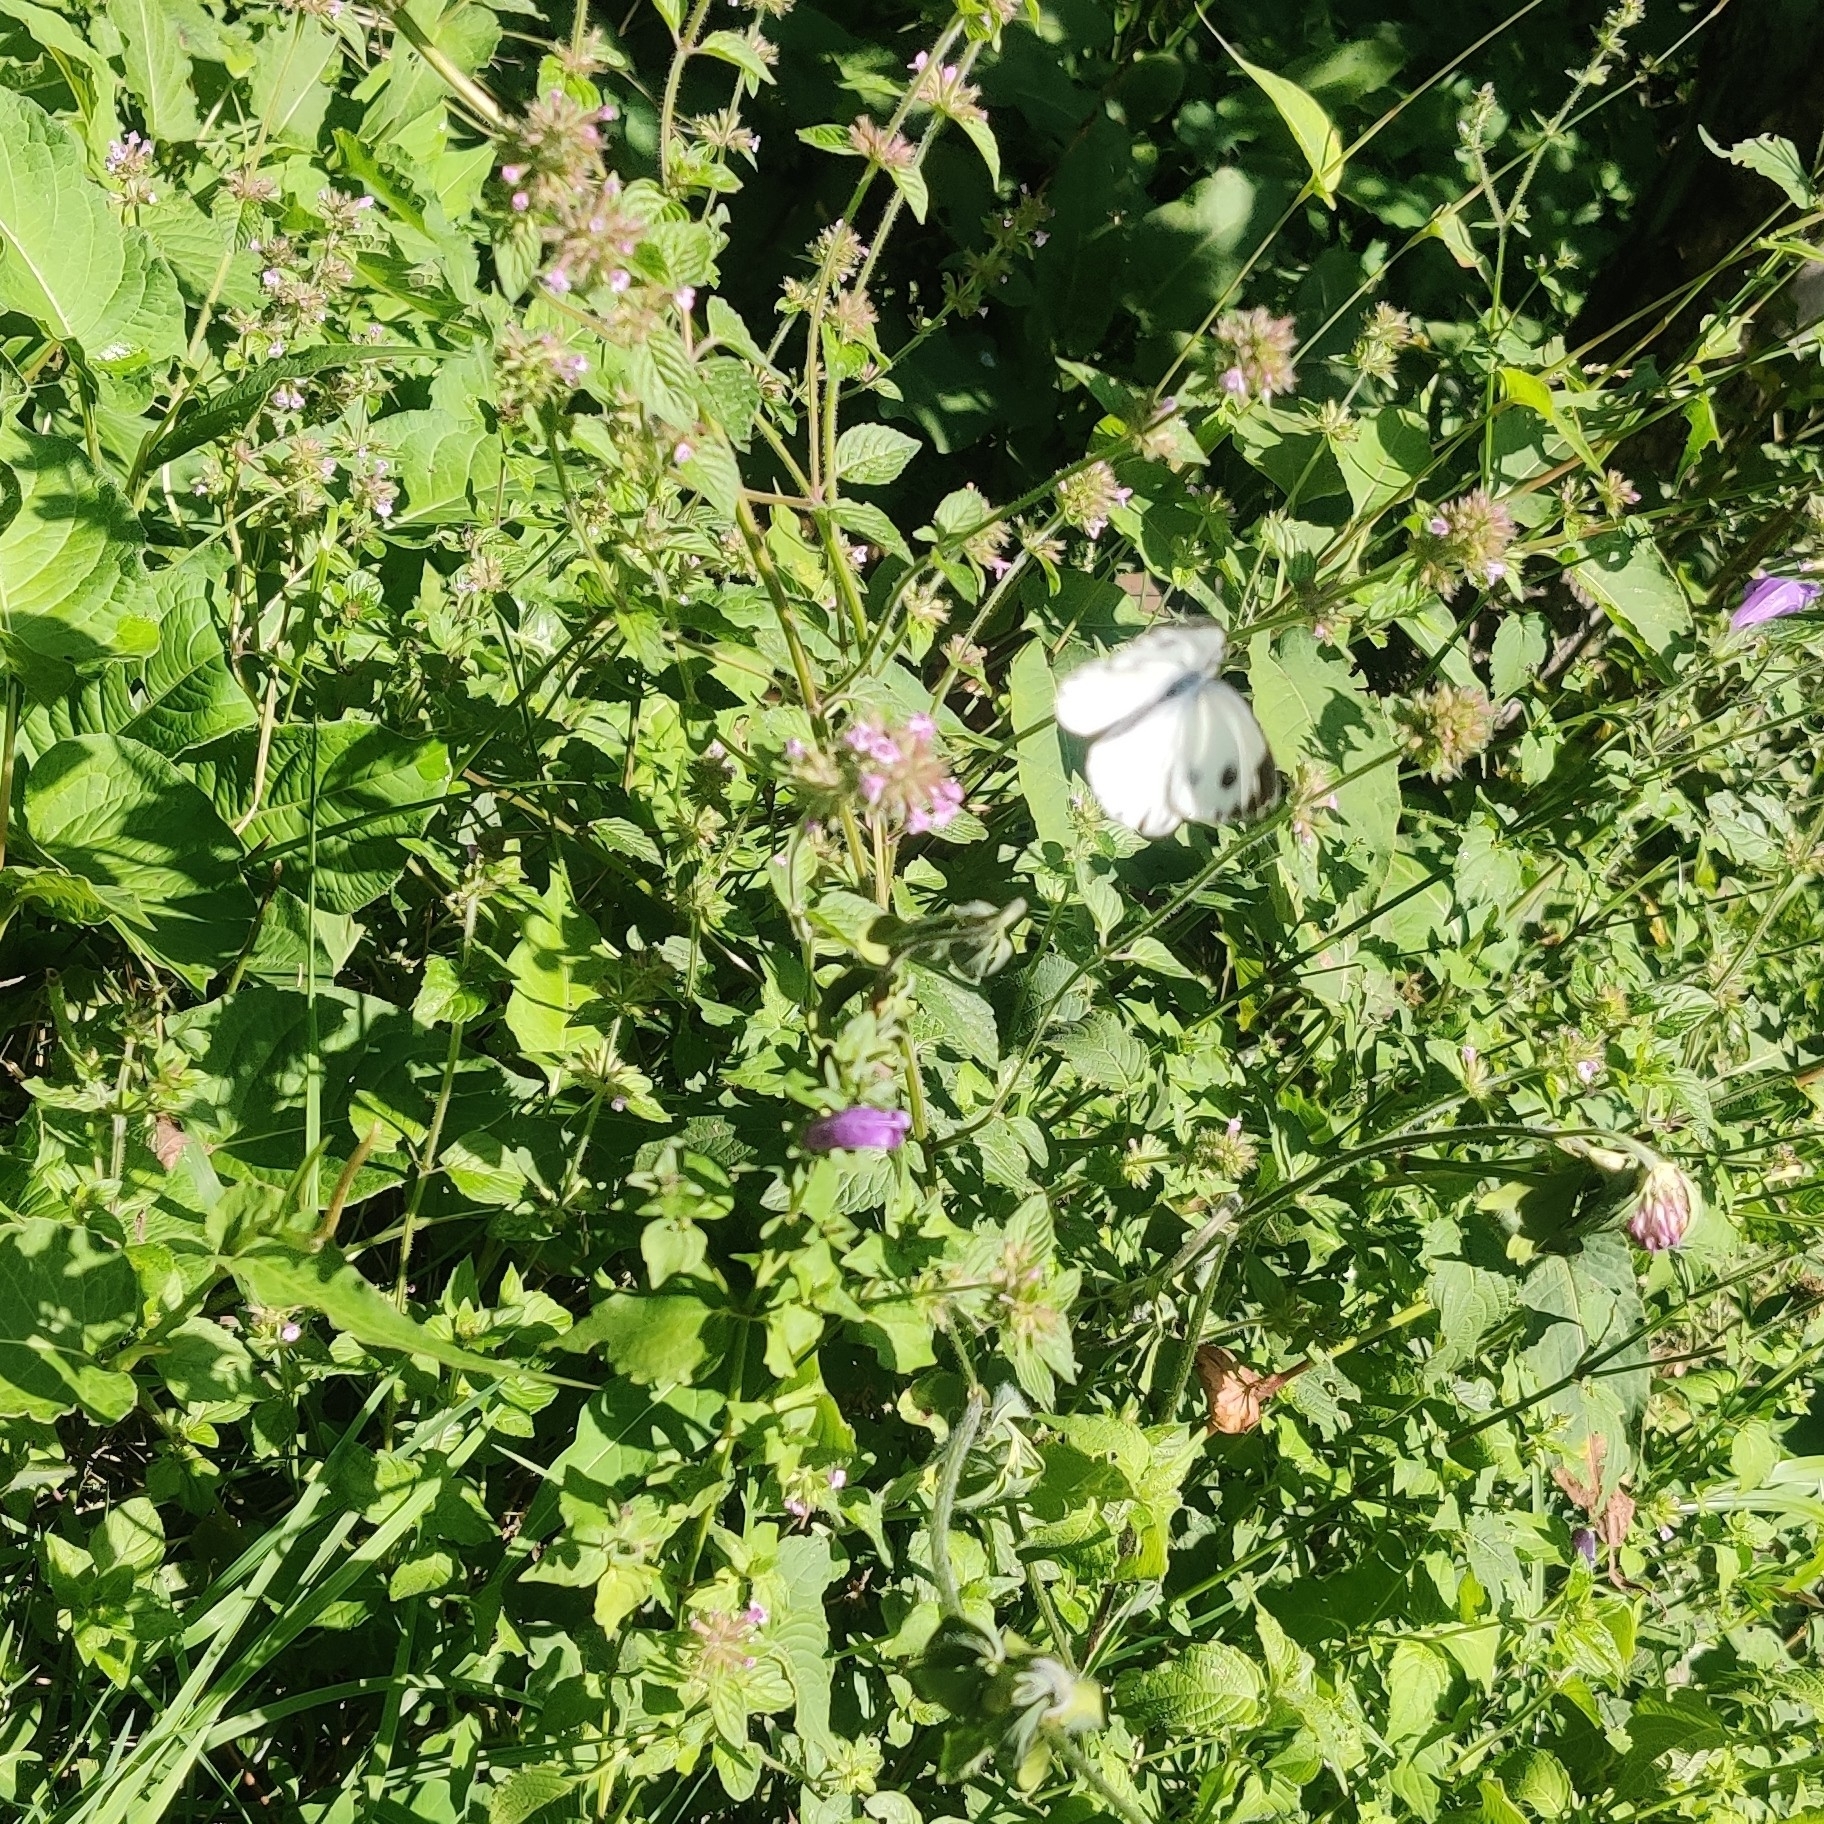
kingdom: Animalia
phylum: Arthropoda
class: Insecta
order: Lepidoptera
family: Pieridae
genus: Pieris
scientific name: Pieris canidia
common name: Indian cabbage white
